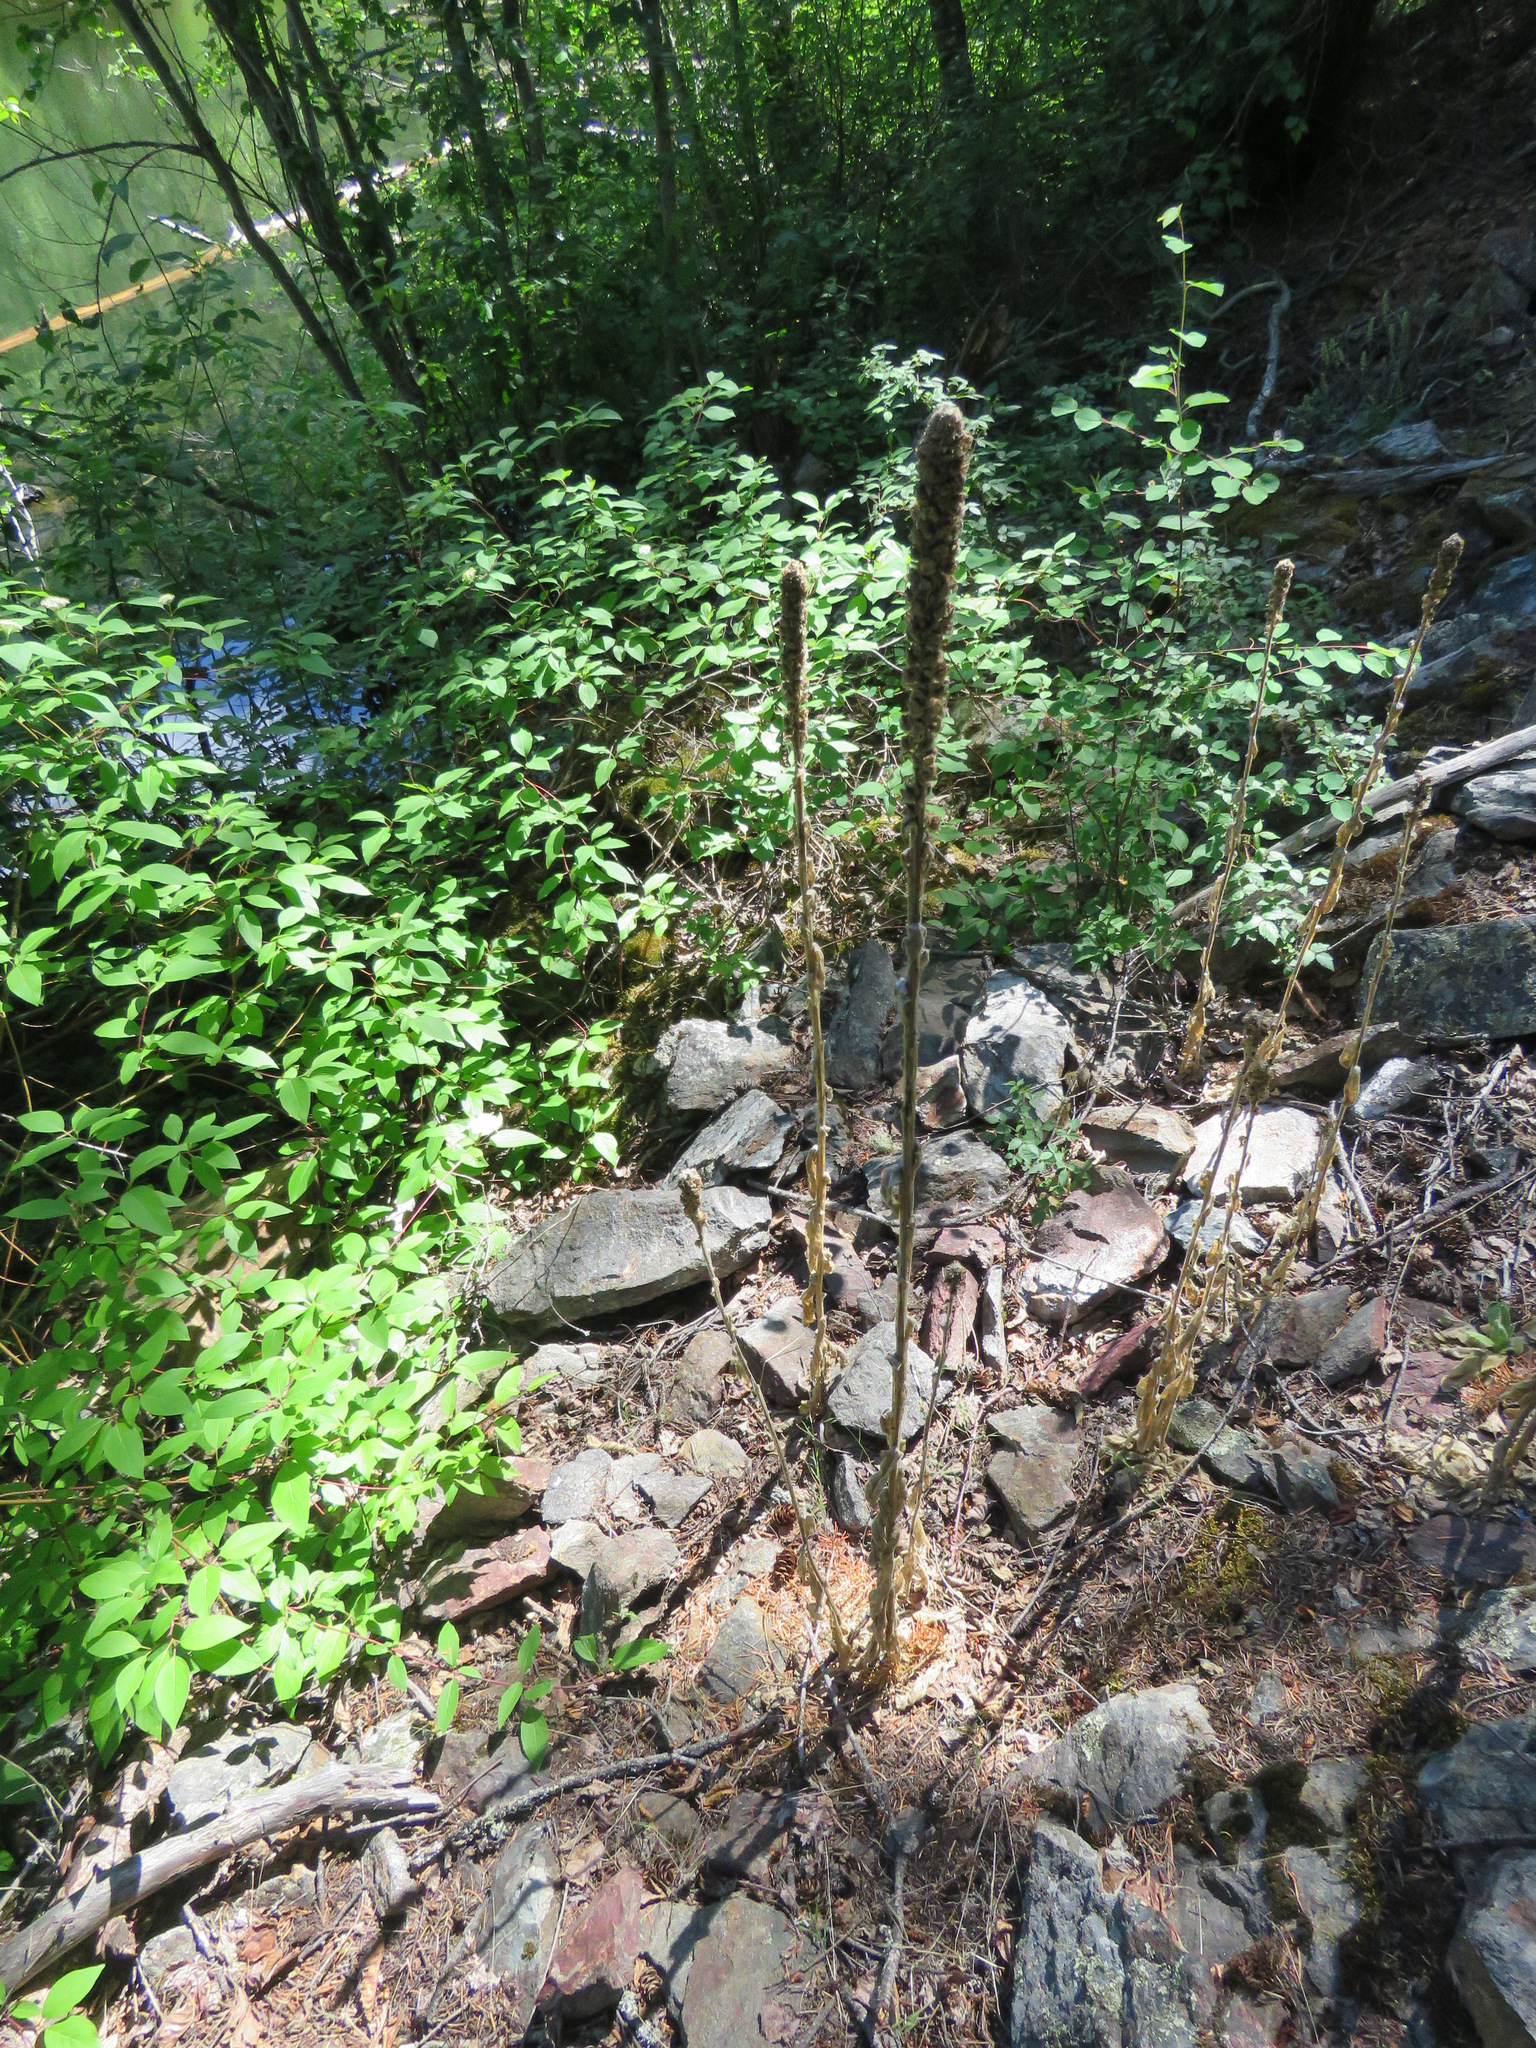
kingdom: Plantae
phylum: Tracheophyta
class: Magnoliopsida
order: Lamiales
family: Scrophulariaceae
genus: Verbascum
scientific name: Verbascum thapsus
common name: Common mullein
